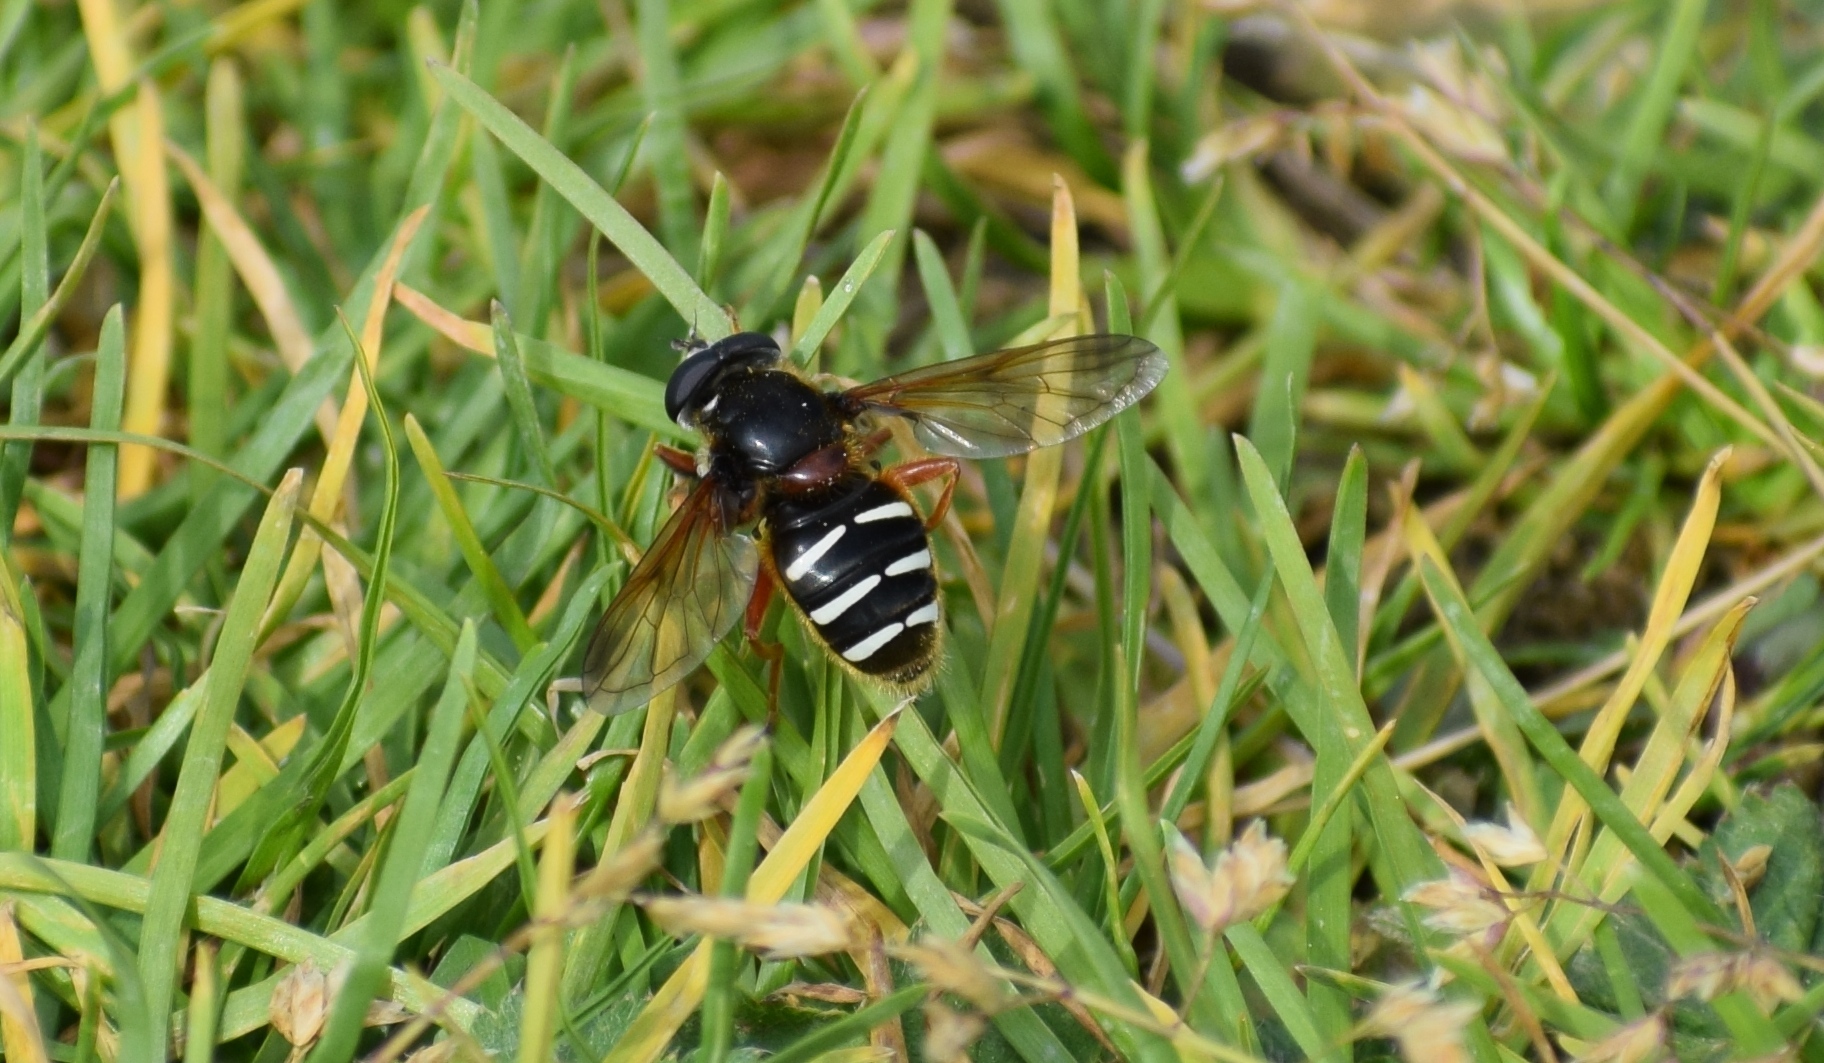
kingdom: Animalia
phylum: Arthropoda
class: Insecta
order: Diptera
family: Syrphidae
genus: Sericomyia
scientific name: Sericomyia lappona
